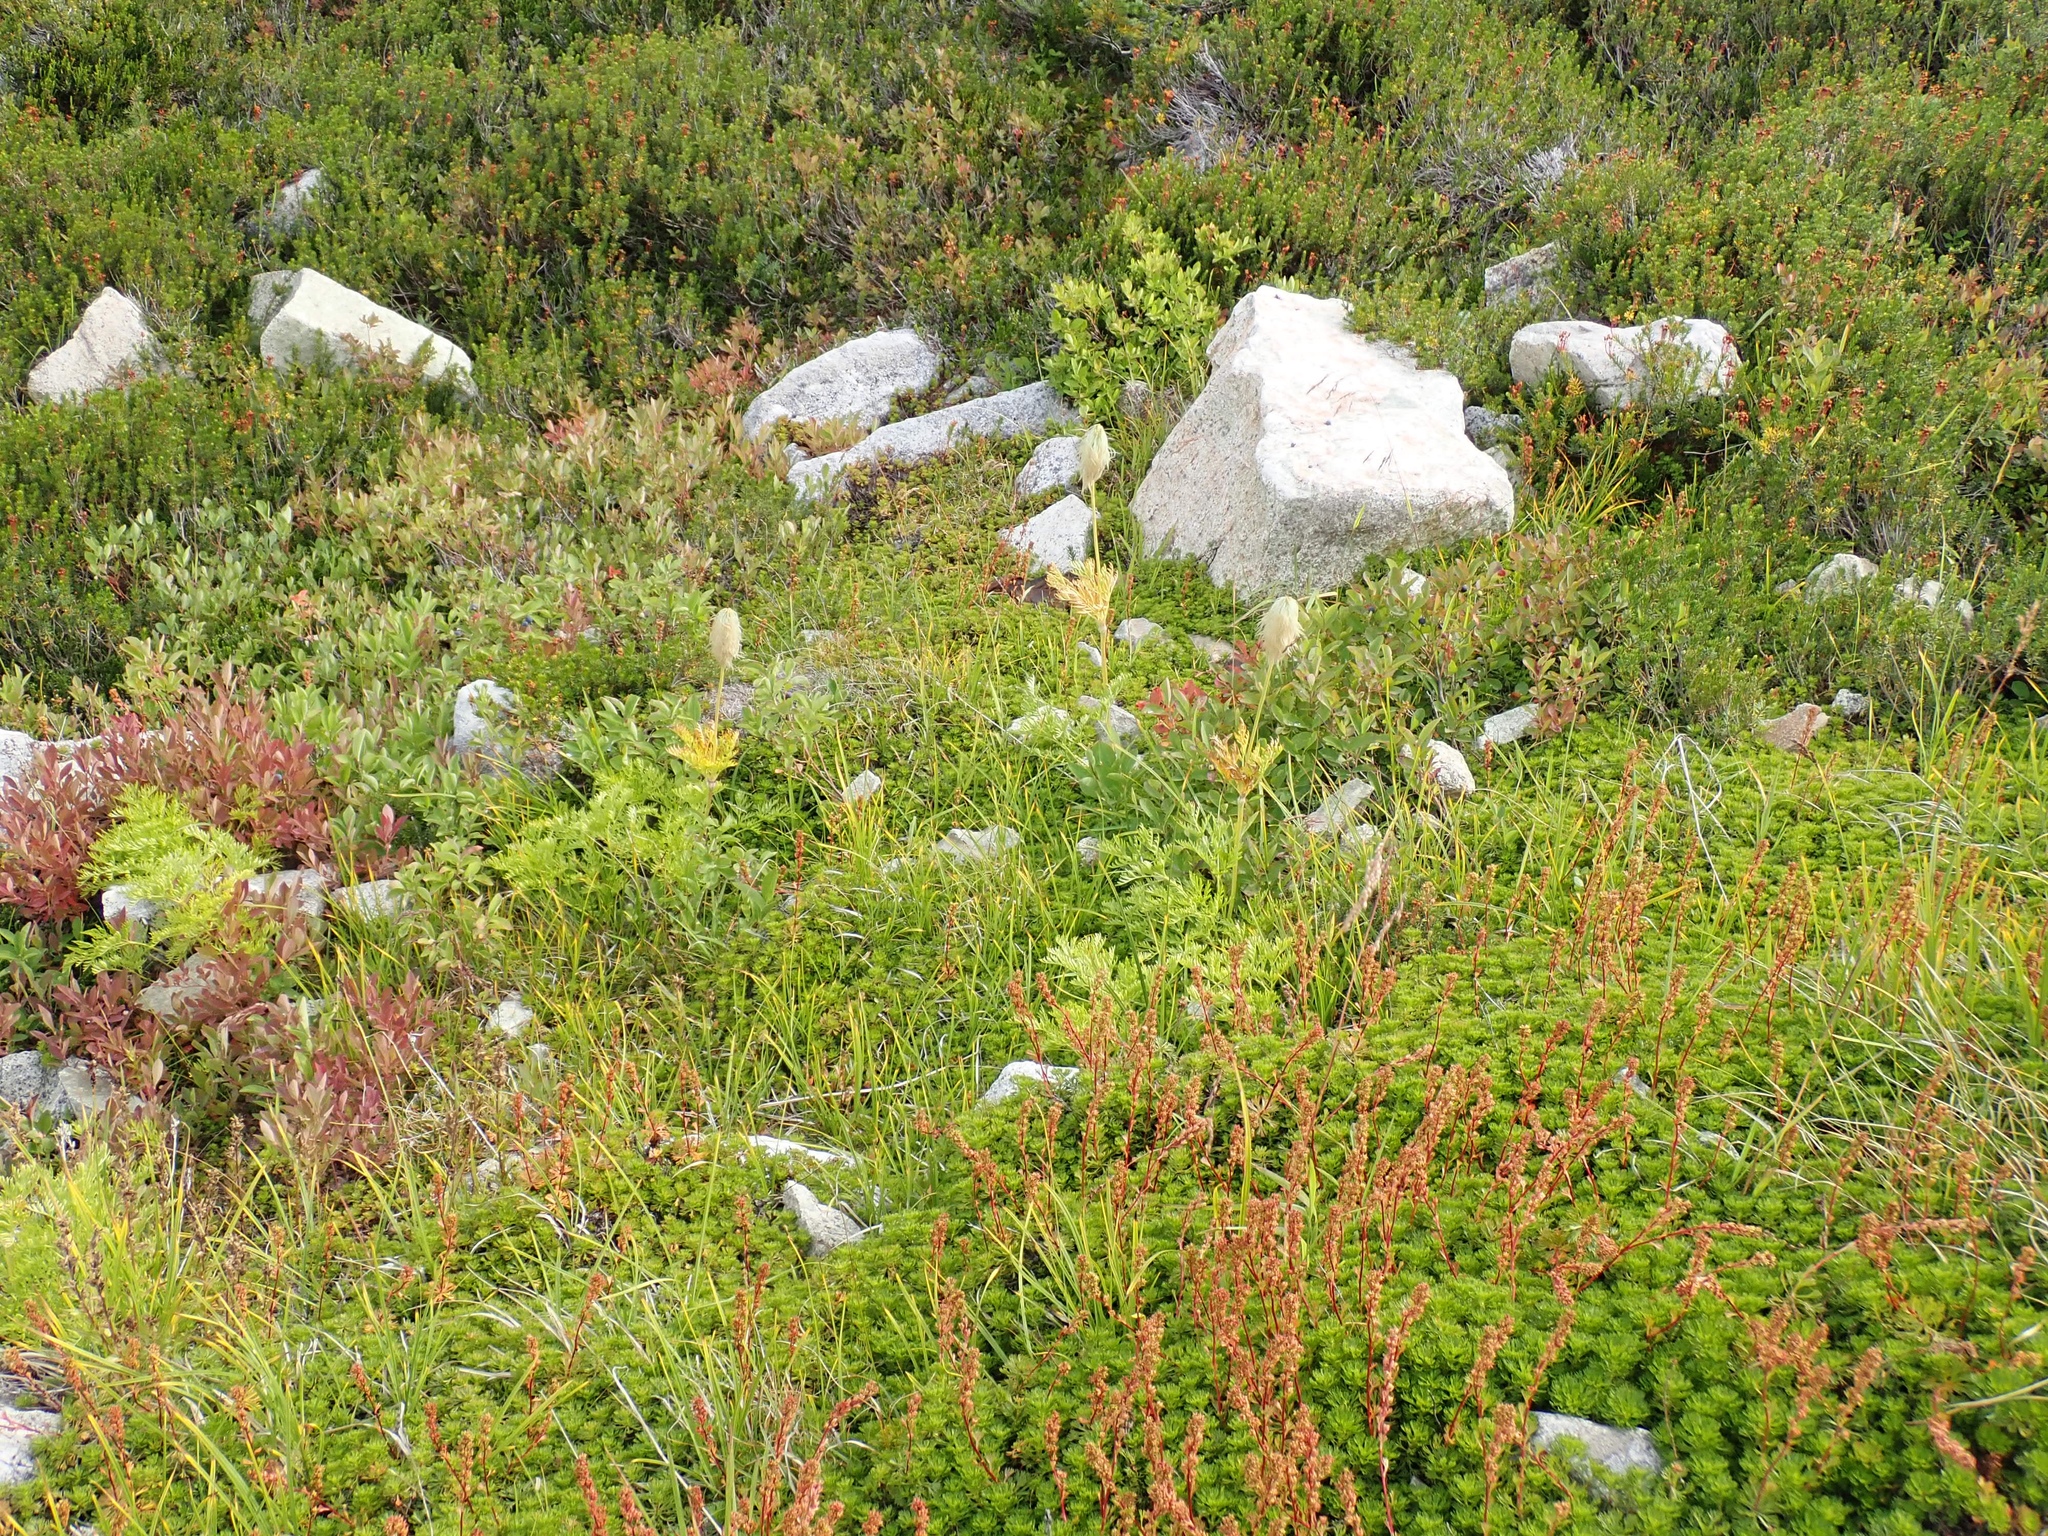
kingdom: Plantae
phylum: Tracheophyta
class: Magnoliopsida
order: Rosales
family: Rosaceae
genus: Luetkea
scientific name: Luetkea pectinata
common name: Partridgefoot
